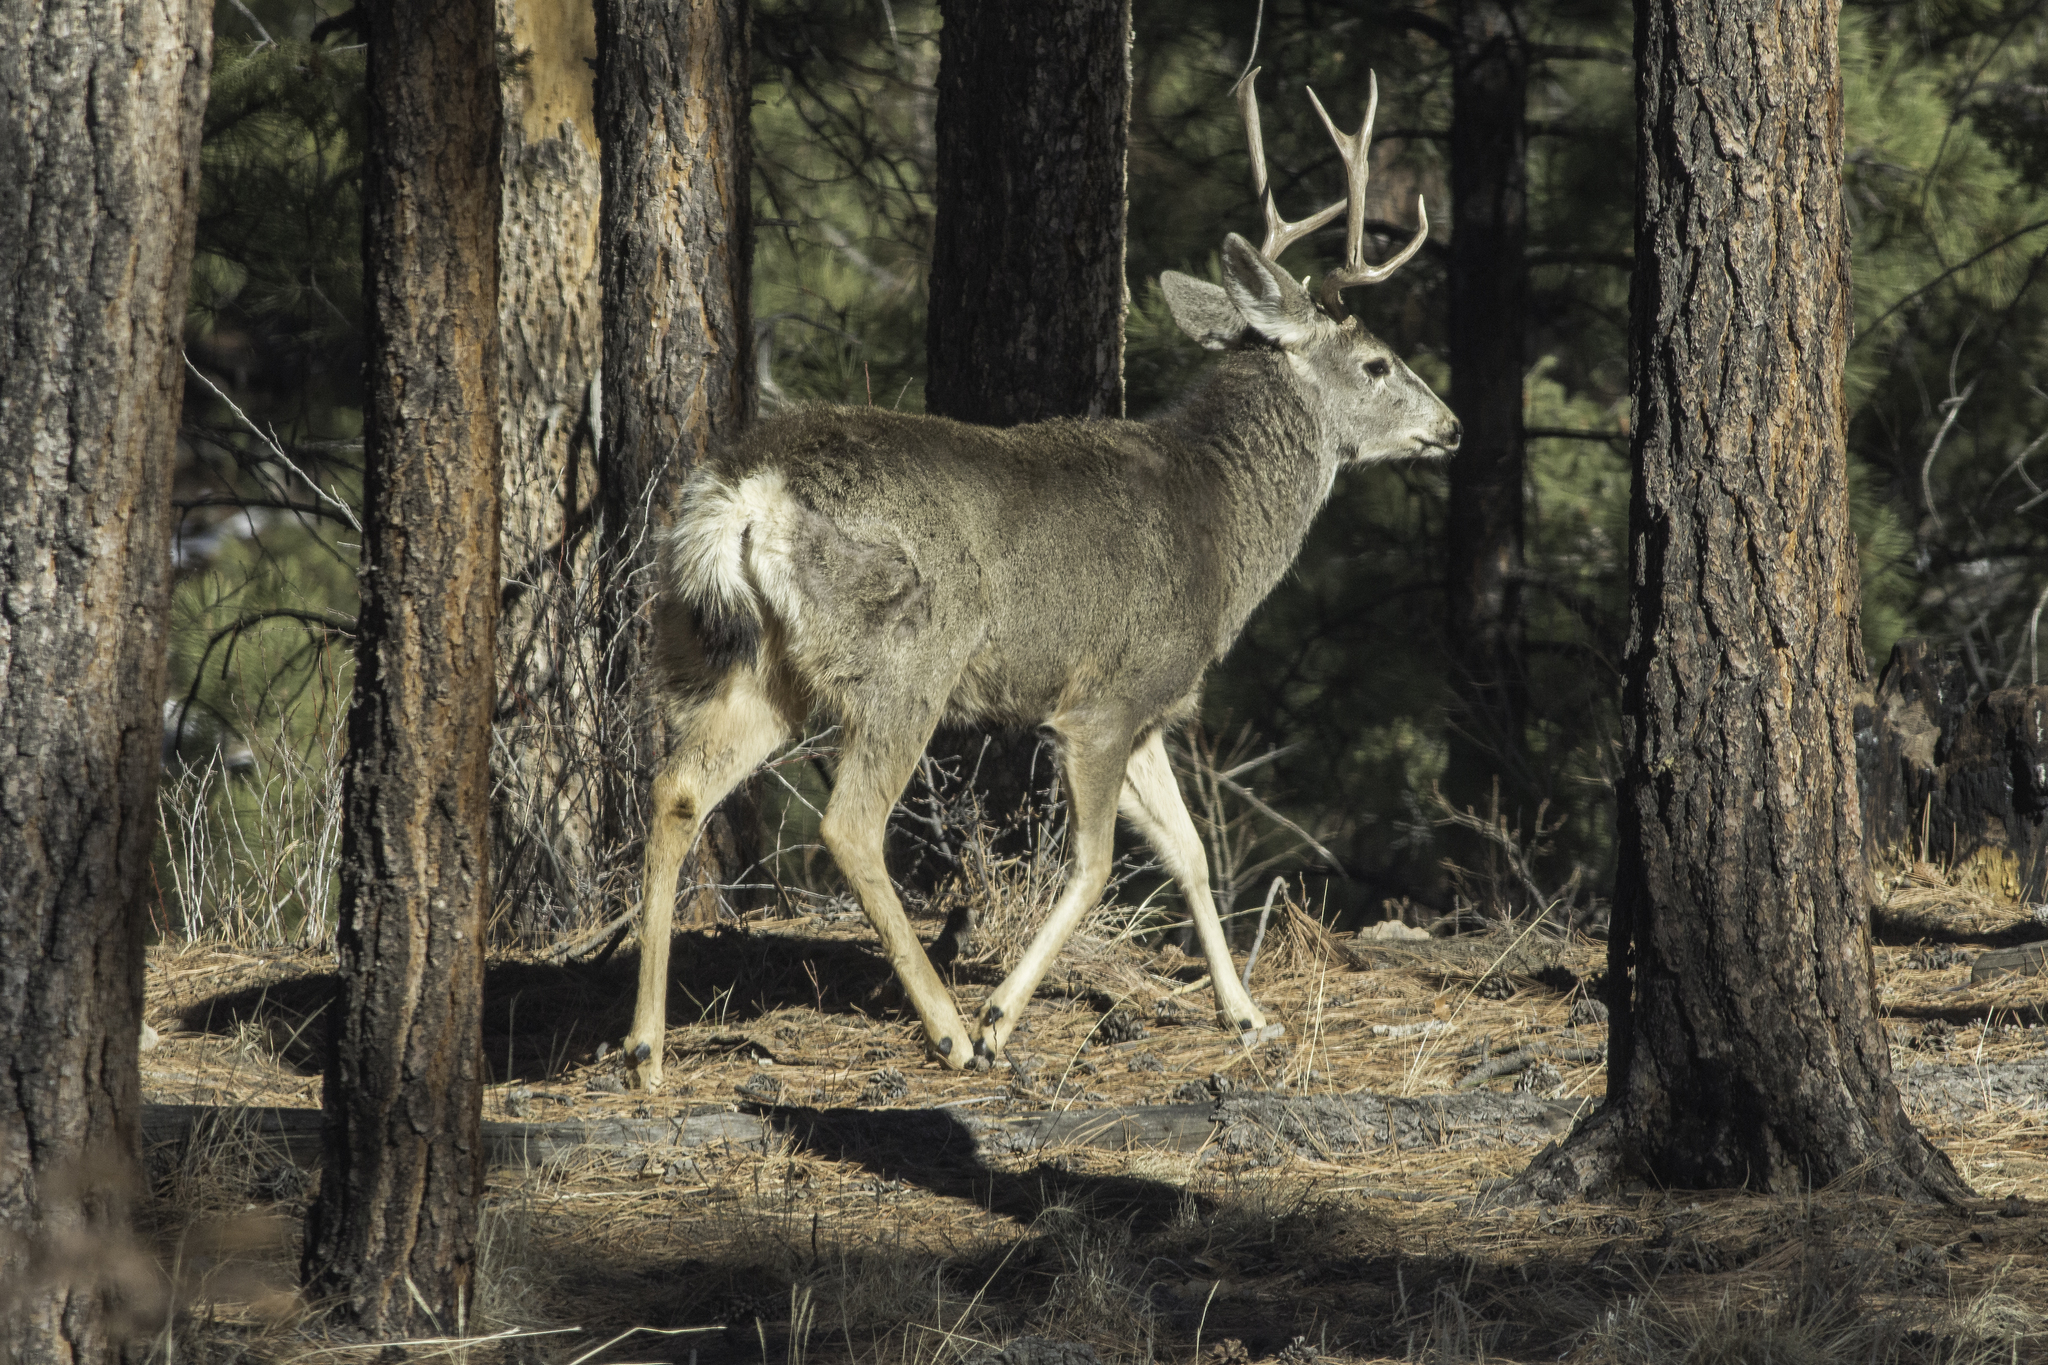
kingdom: Animalia
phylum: Chordata
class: Mammalia
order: Artiodactyla
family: Cervidae
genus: Odocoileus
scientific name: Odocoileus hemionus
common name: Mule deer
